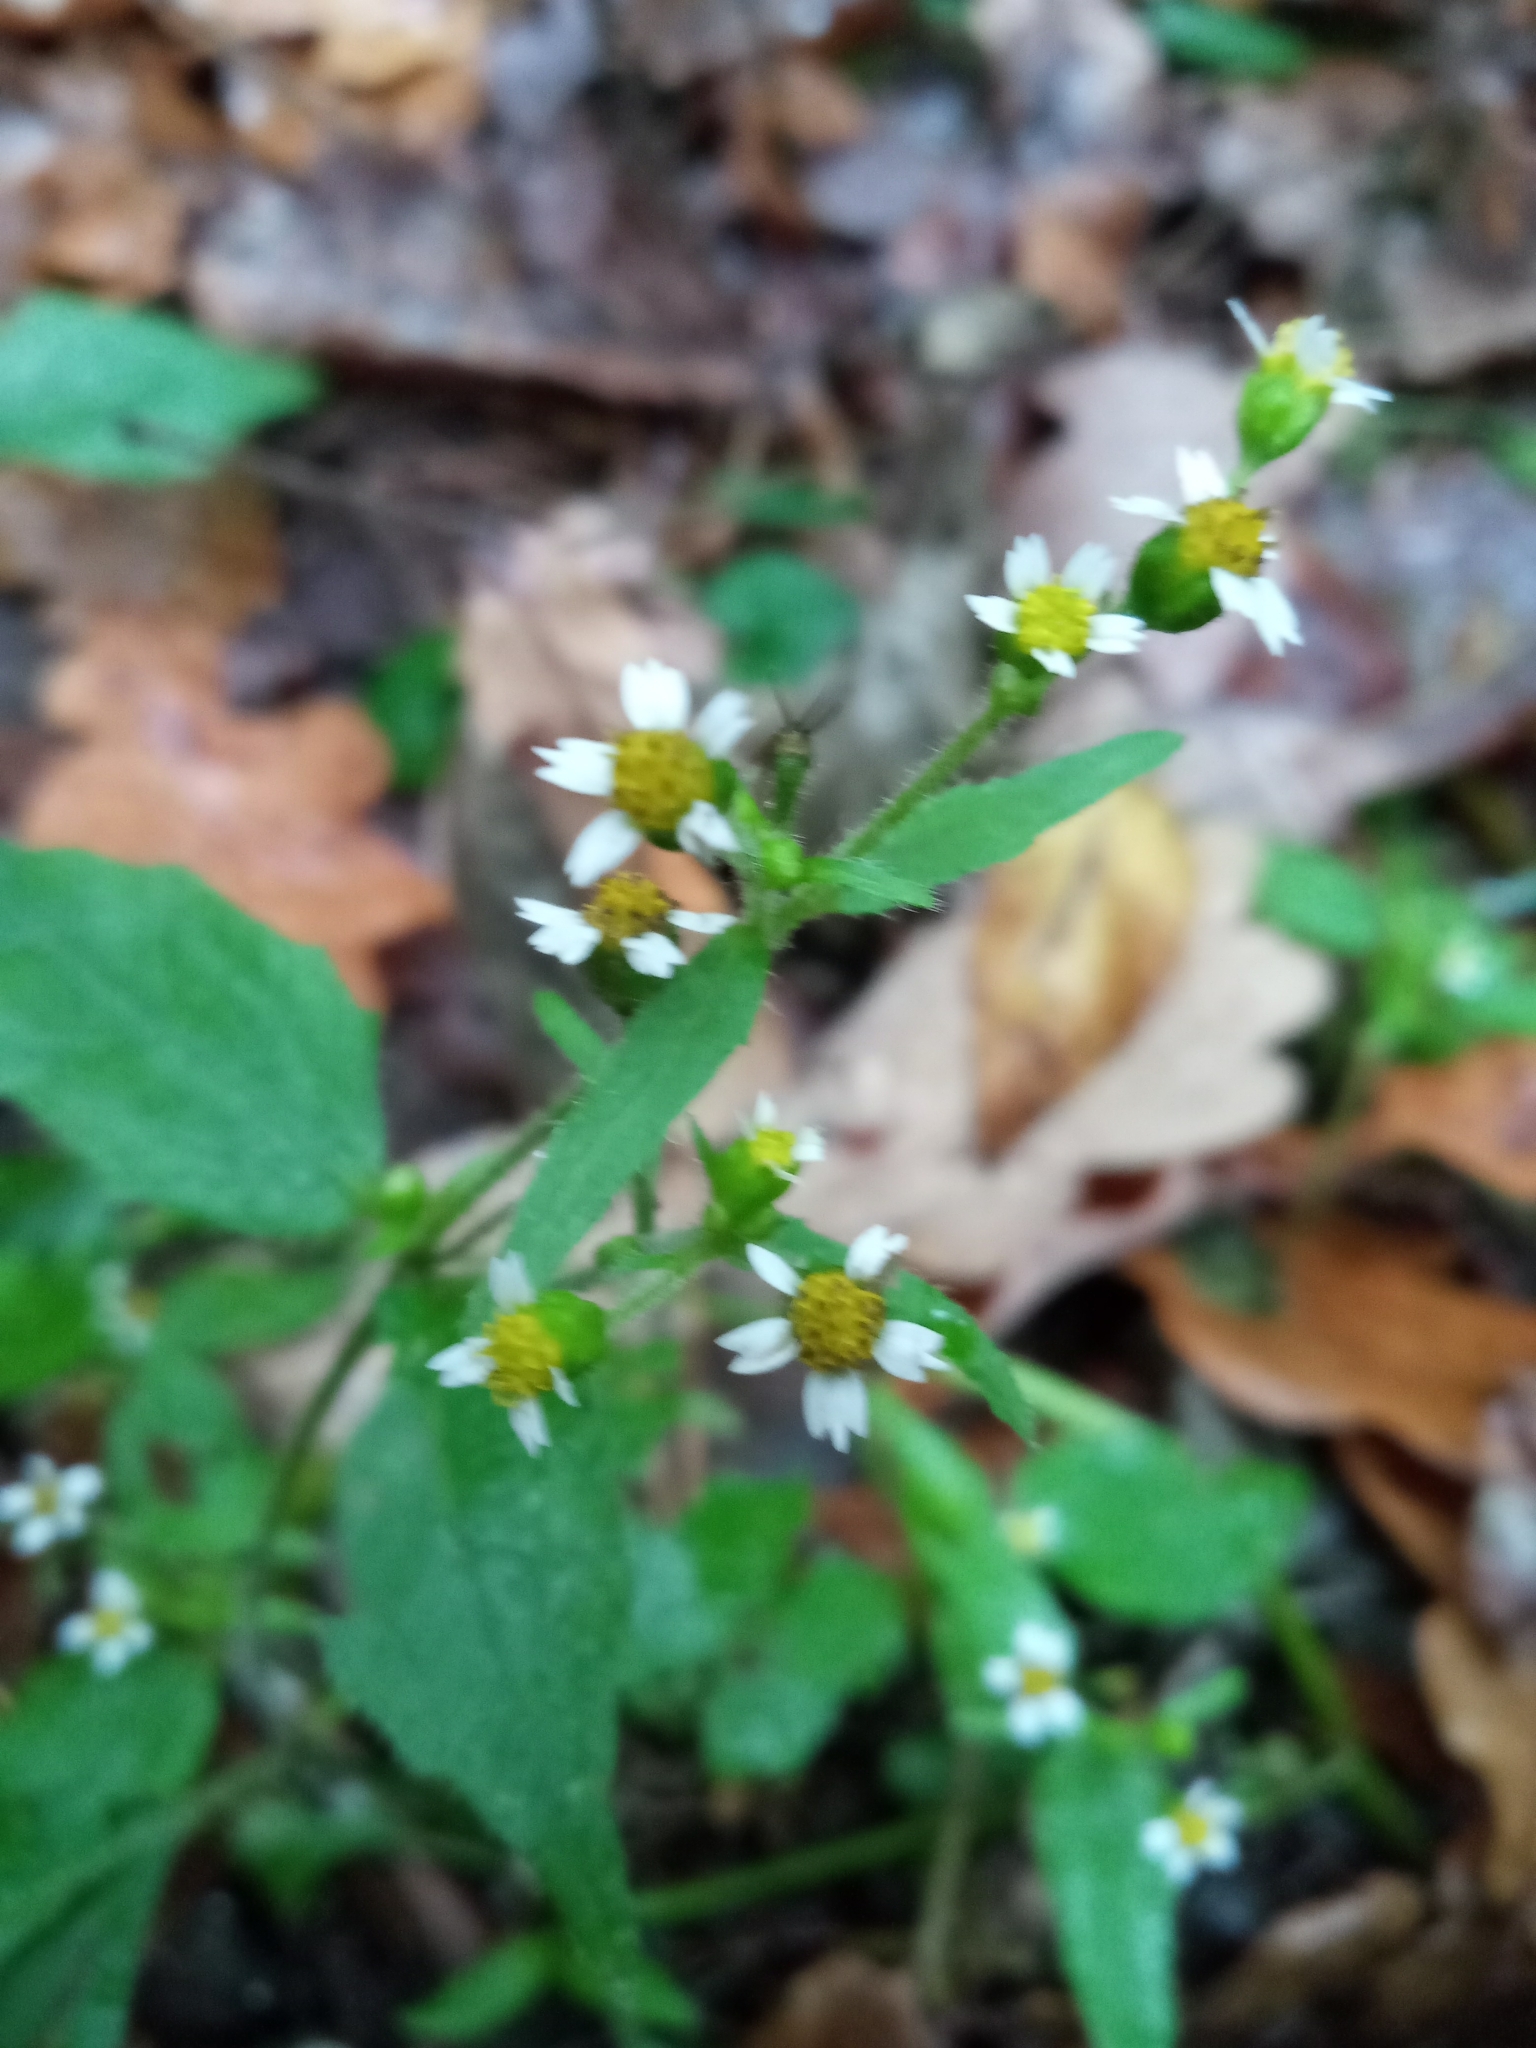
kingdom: Plantae
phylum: Tracheophyta
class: Magnoliopsida
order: Asterales
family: Asteraceae
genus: Galinsoga
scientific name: Galinsoga quadriradiata
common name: Shaggy soldier
